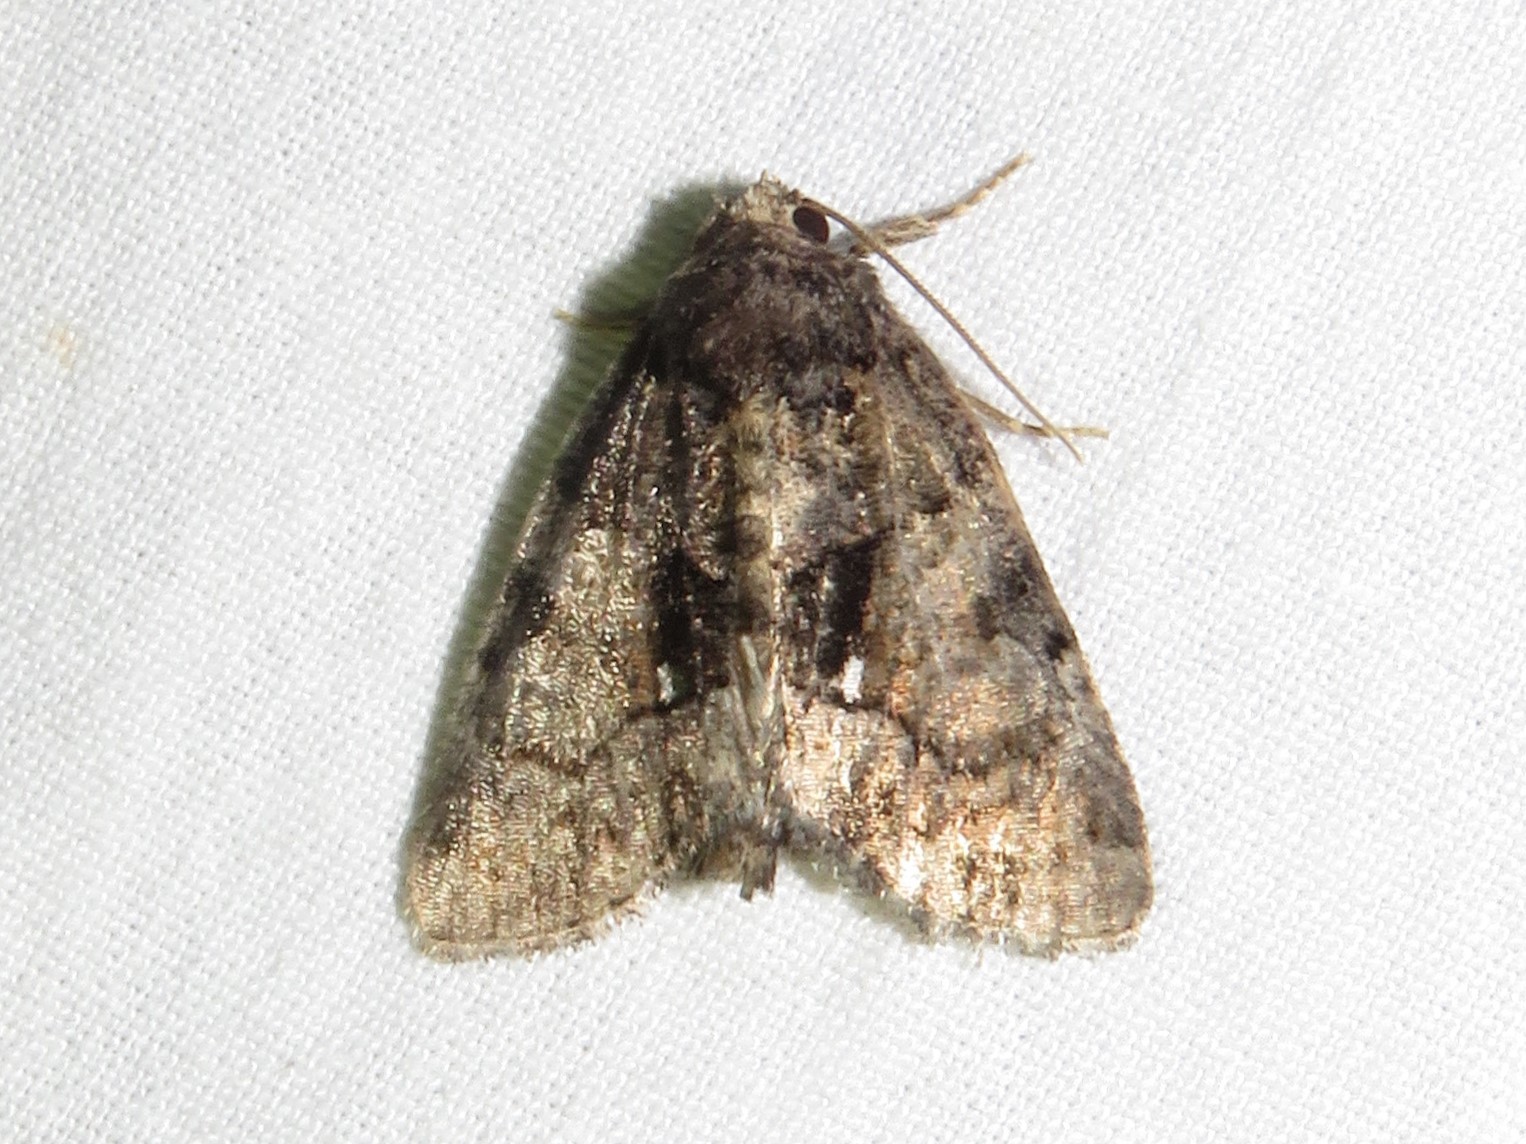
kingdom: Animalia
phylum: Arthropoda
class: Insecta
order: Lepidoptera
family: Noctuidae
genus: Chytonix
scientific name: Chytonix palliatricula
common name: Cloaked marvel
